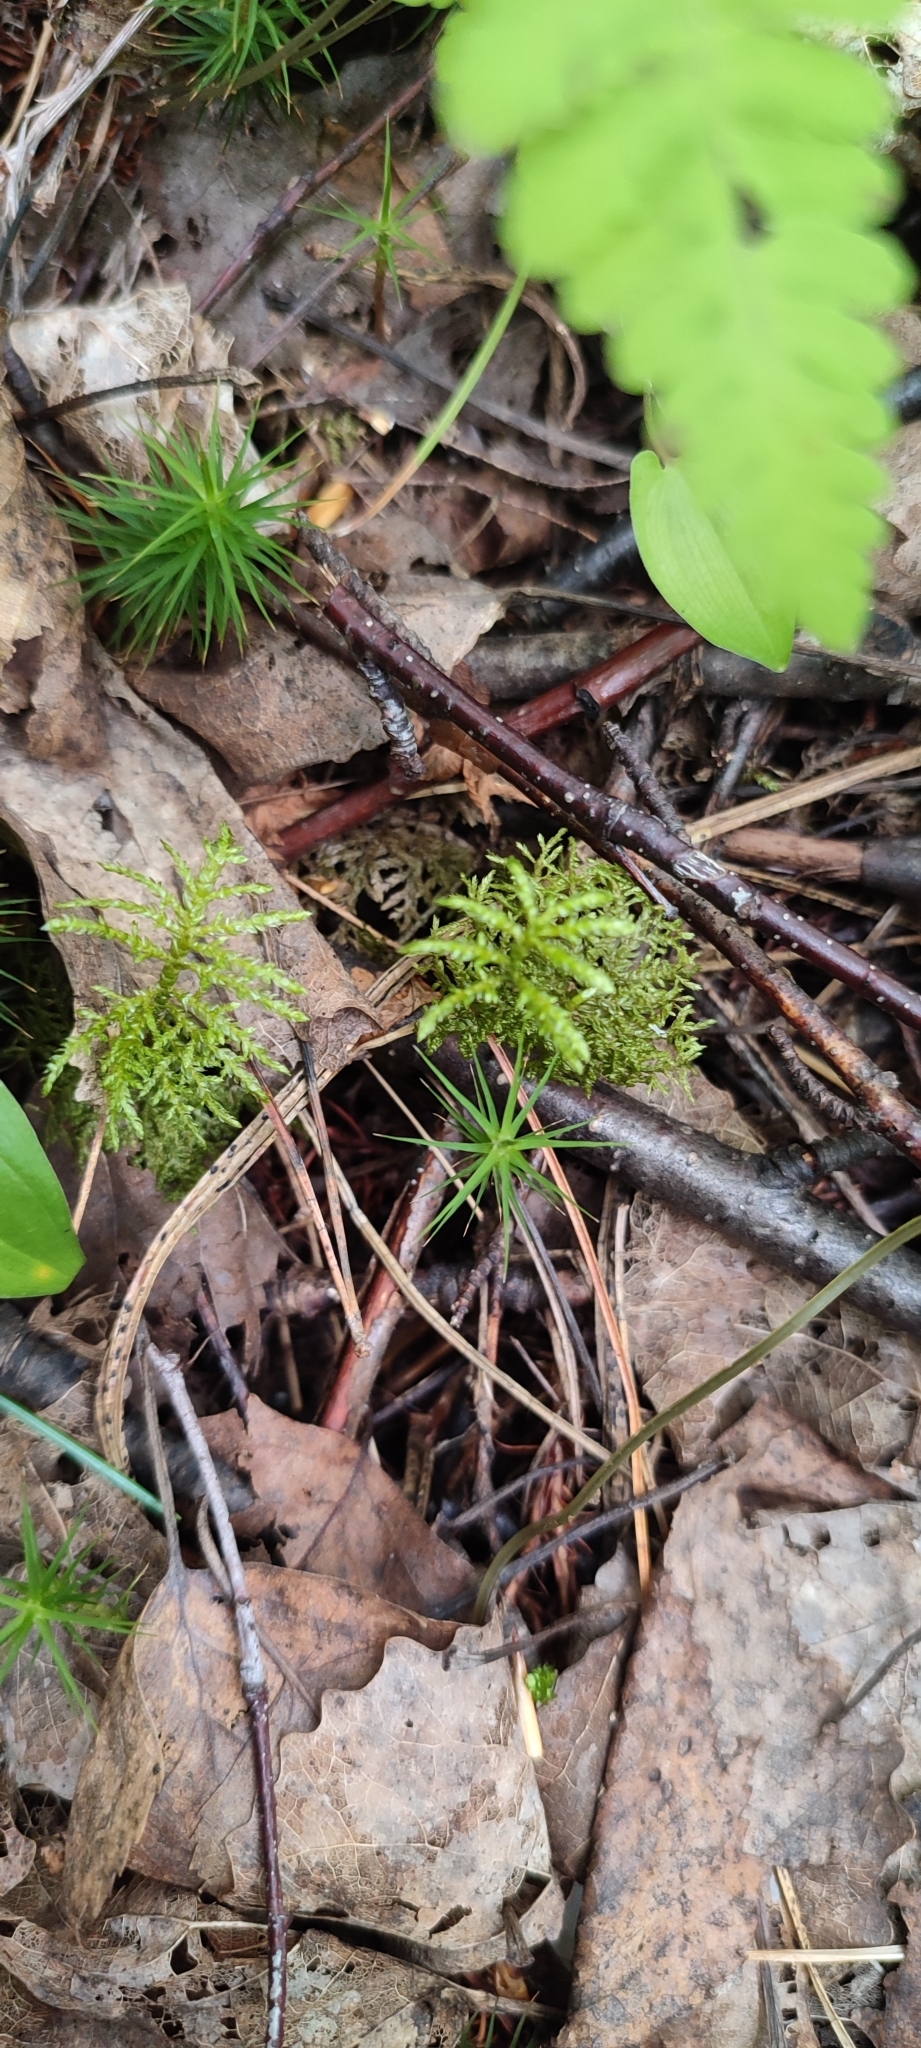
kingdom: Plantae
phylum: Bryophyta
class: Bryopsida
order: Hypnales
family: Hylocomiaceae
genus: Hylocomium
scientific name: Hylocomium splendens
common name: Stairstep moss
